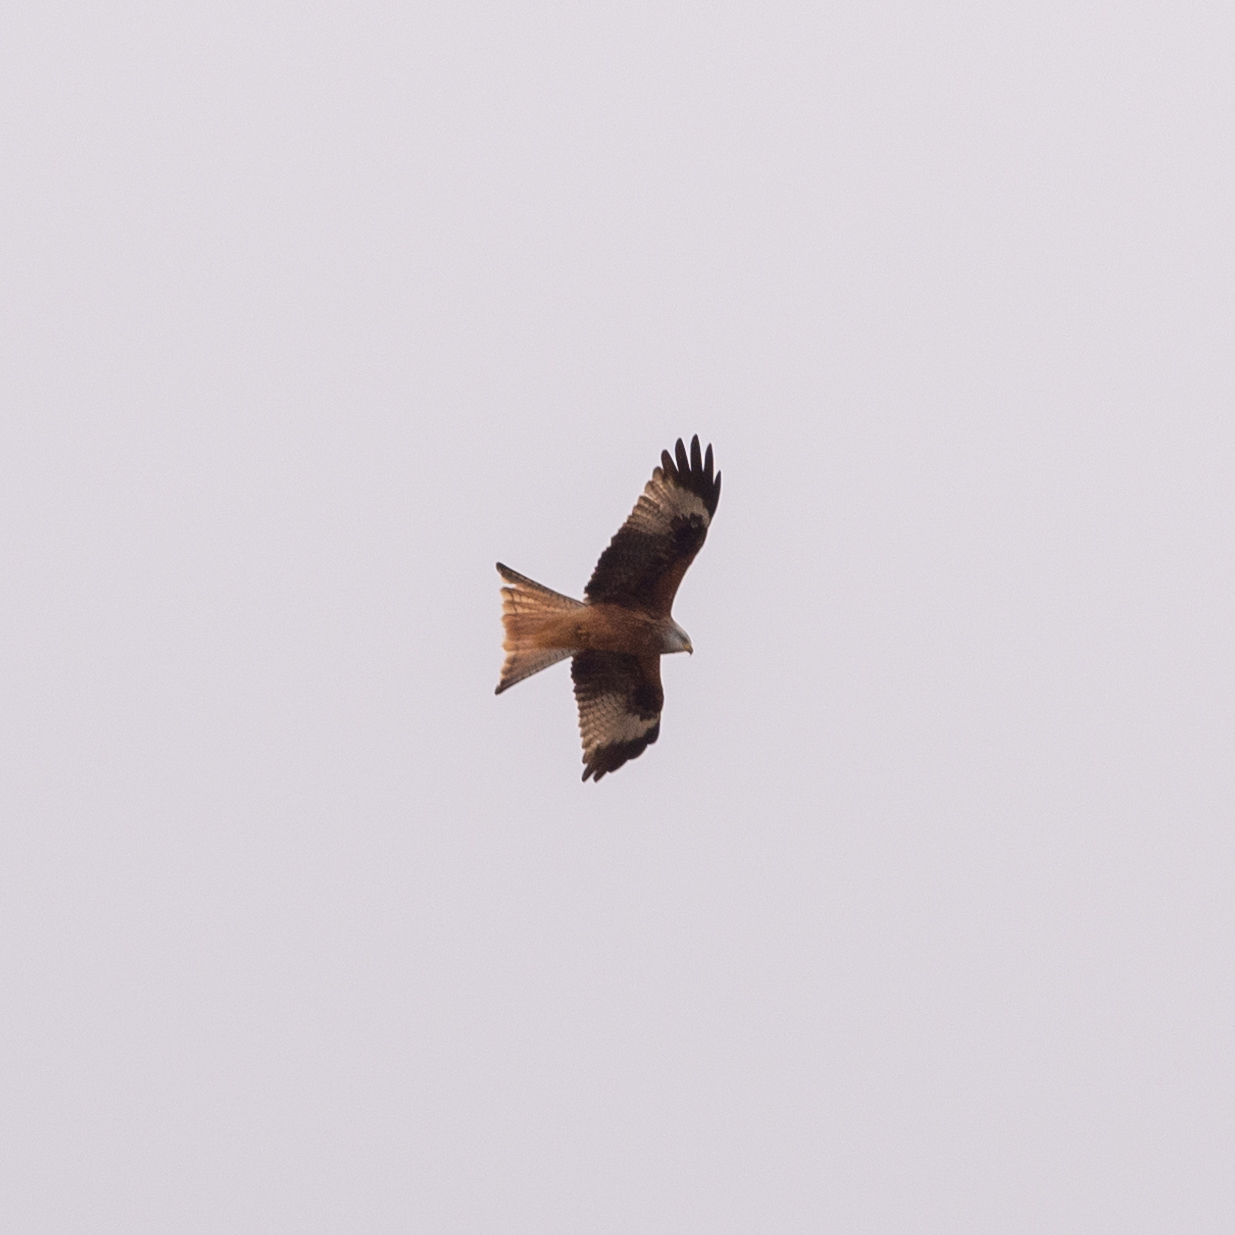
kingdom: Animalia
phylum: Chordata
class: Aves
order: Accipitriformes
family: Accipitridae
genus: Milvus
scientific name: Milvus milvus
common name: Red kite
